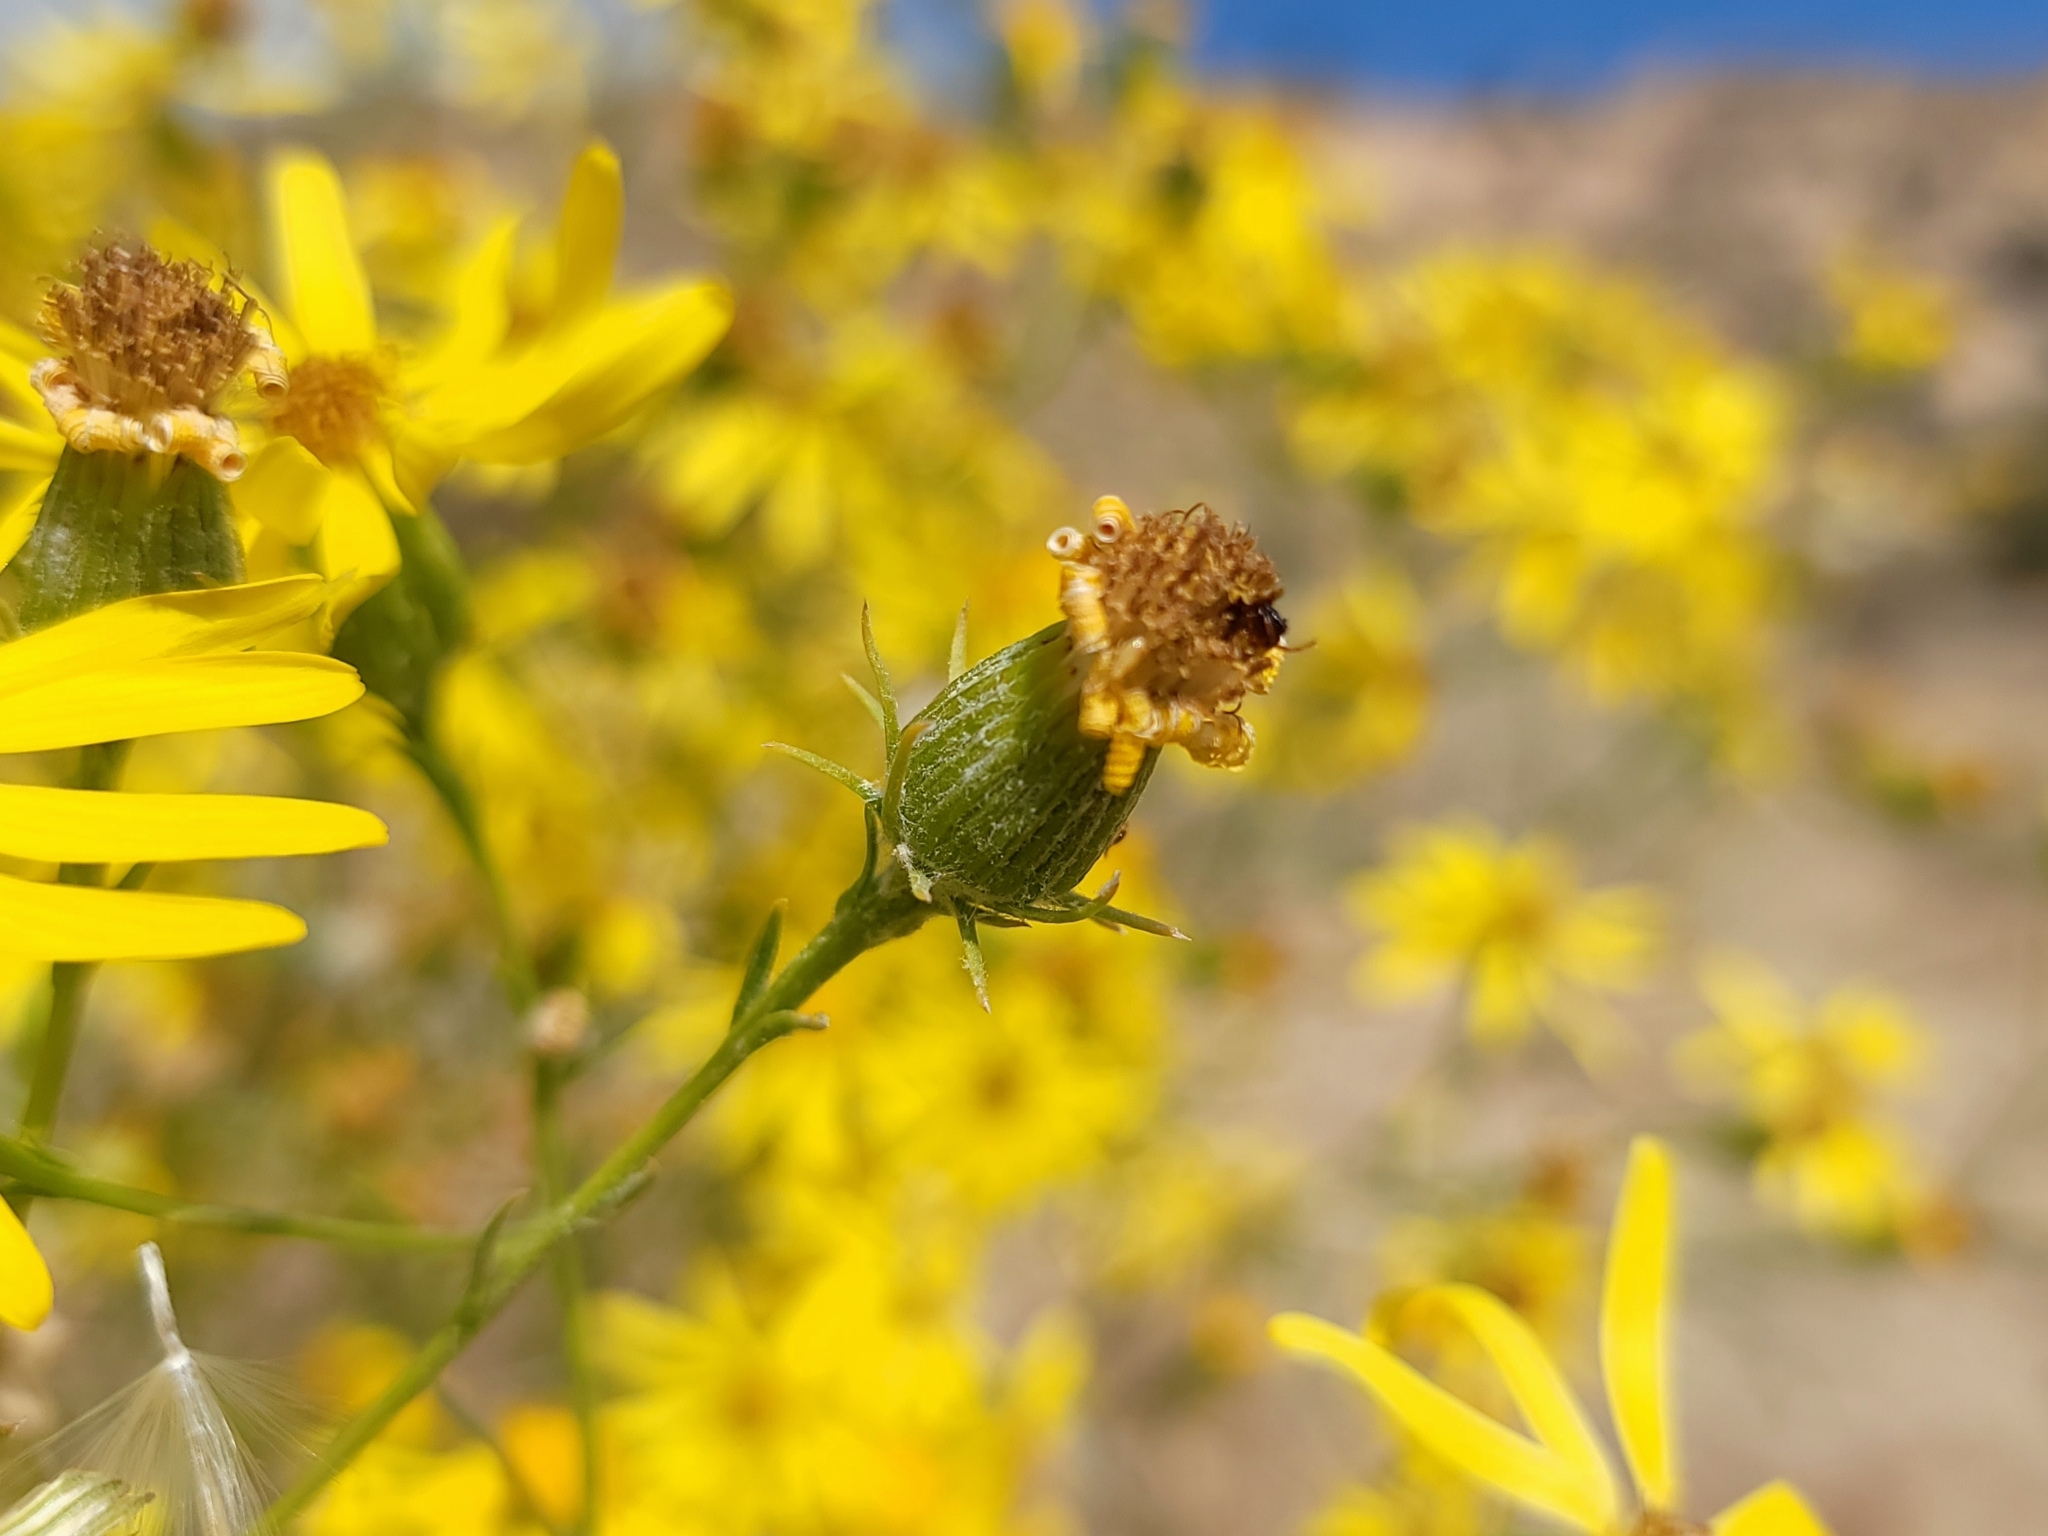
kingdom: Plantae
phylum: Tracheophyta
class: Magnoliopsida
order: Asterales
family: Asteraceae
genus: Senecio
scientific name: Senecio flaccidus
